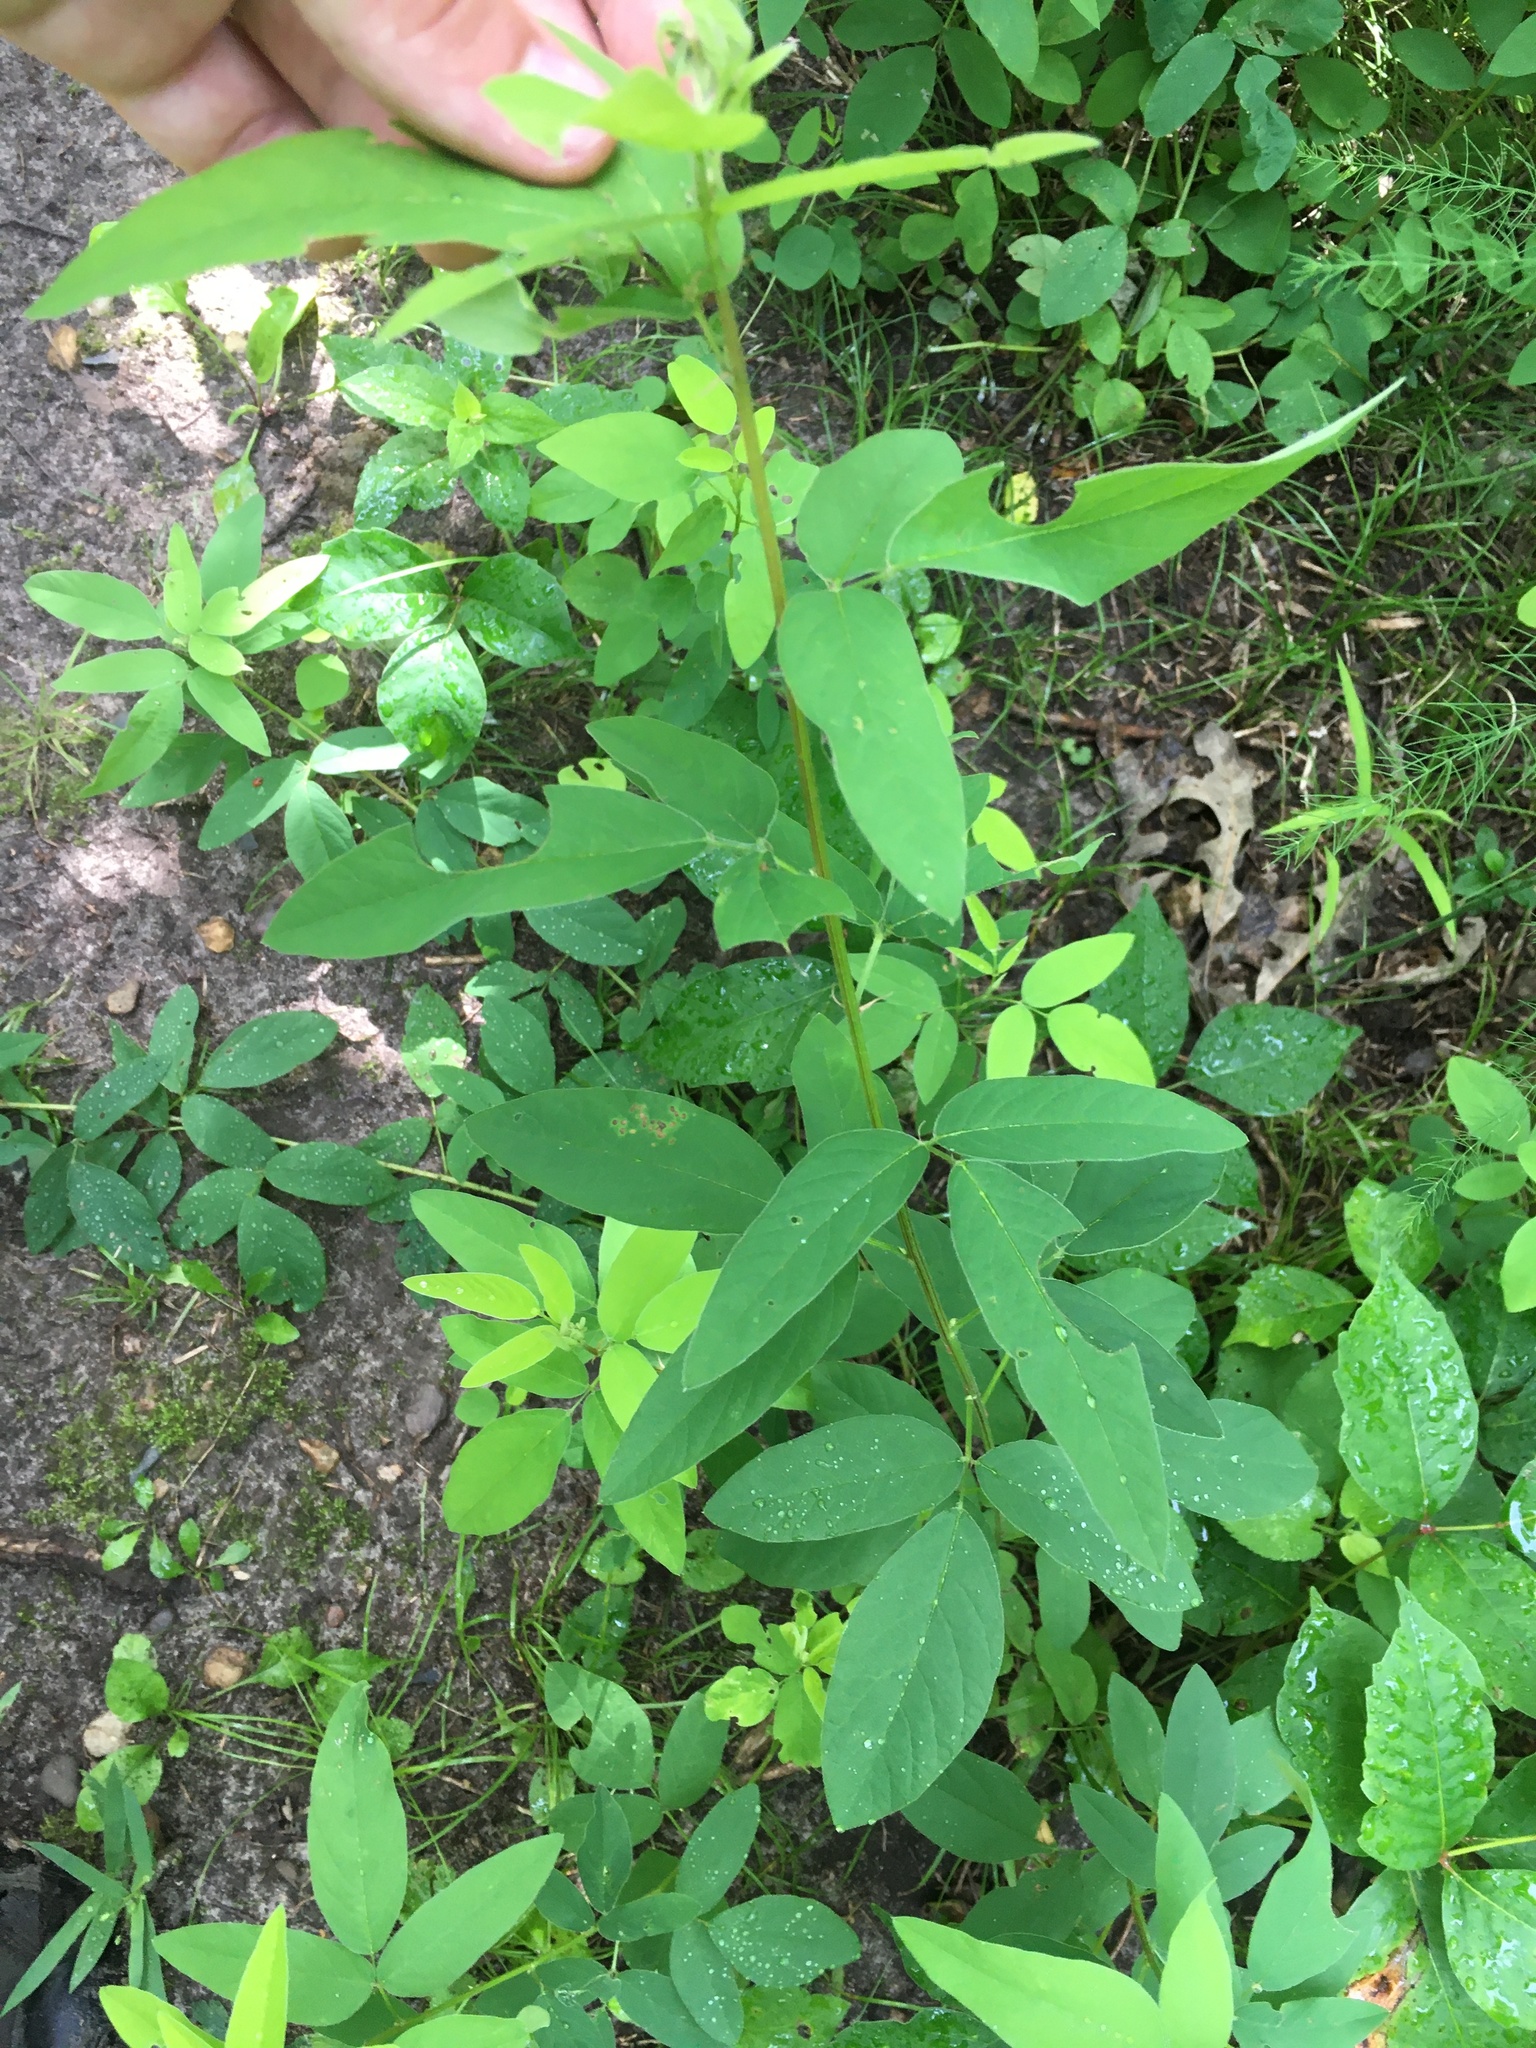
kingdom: Plantae
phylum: Tracheophyta
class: Magnoliopsida
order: Fabales
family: Fabaceae
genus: Desmodium
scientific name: Desmodium canadense
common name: Canada tick-trefoil
